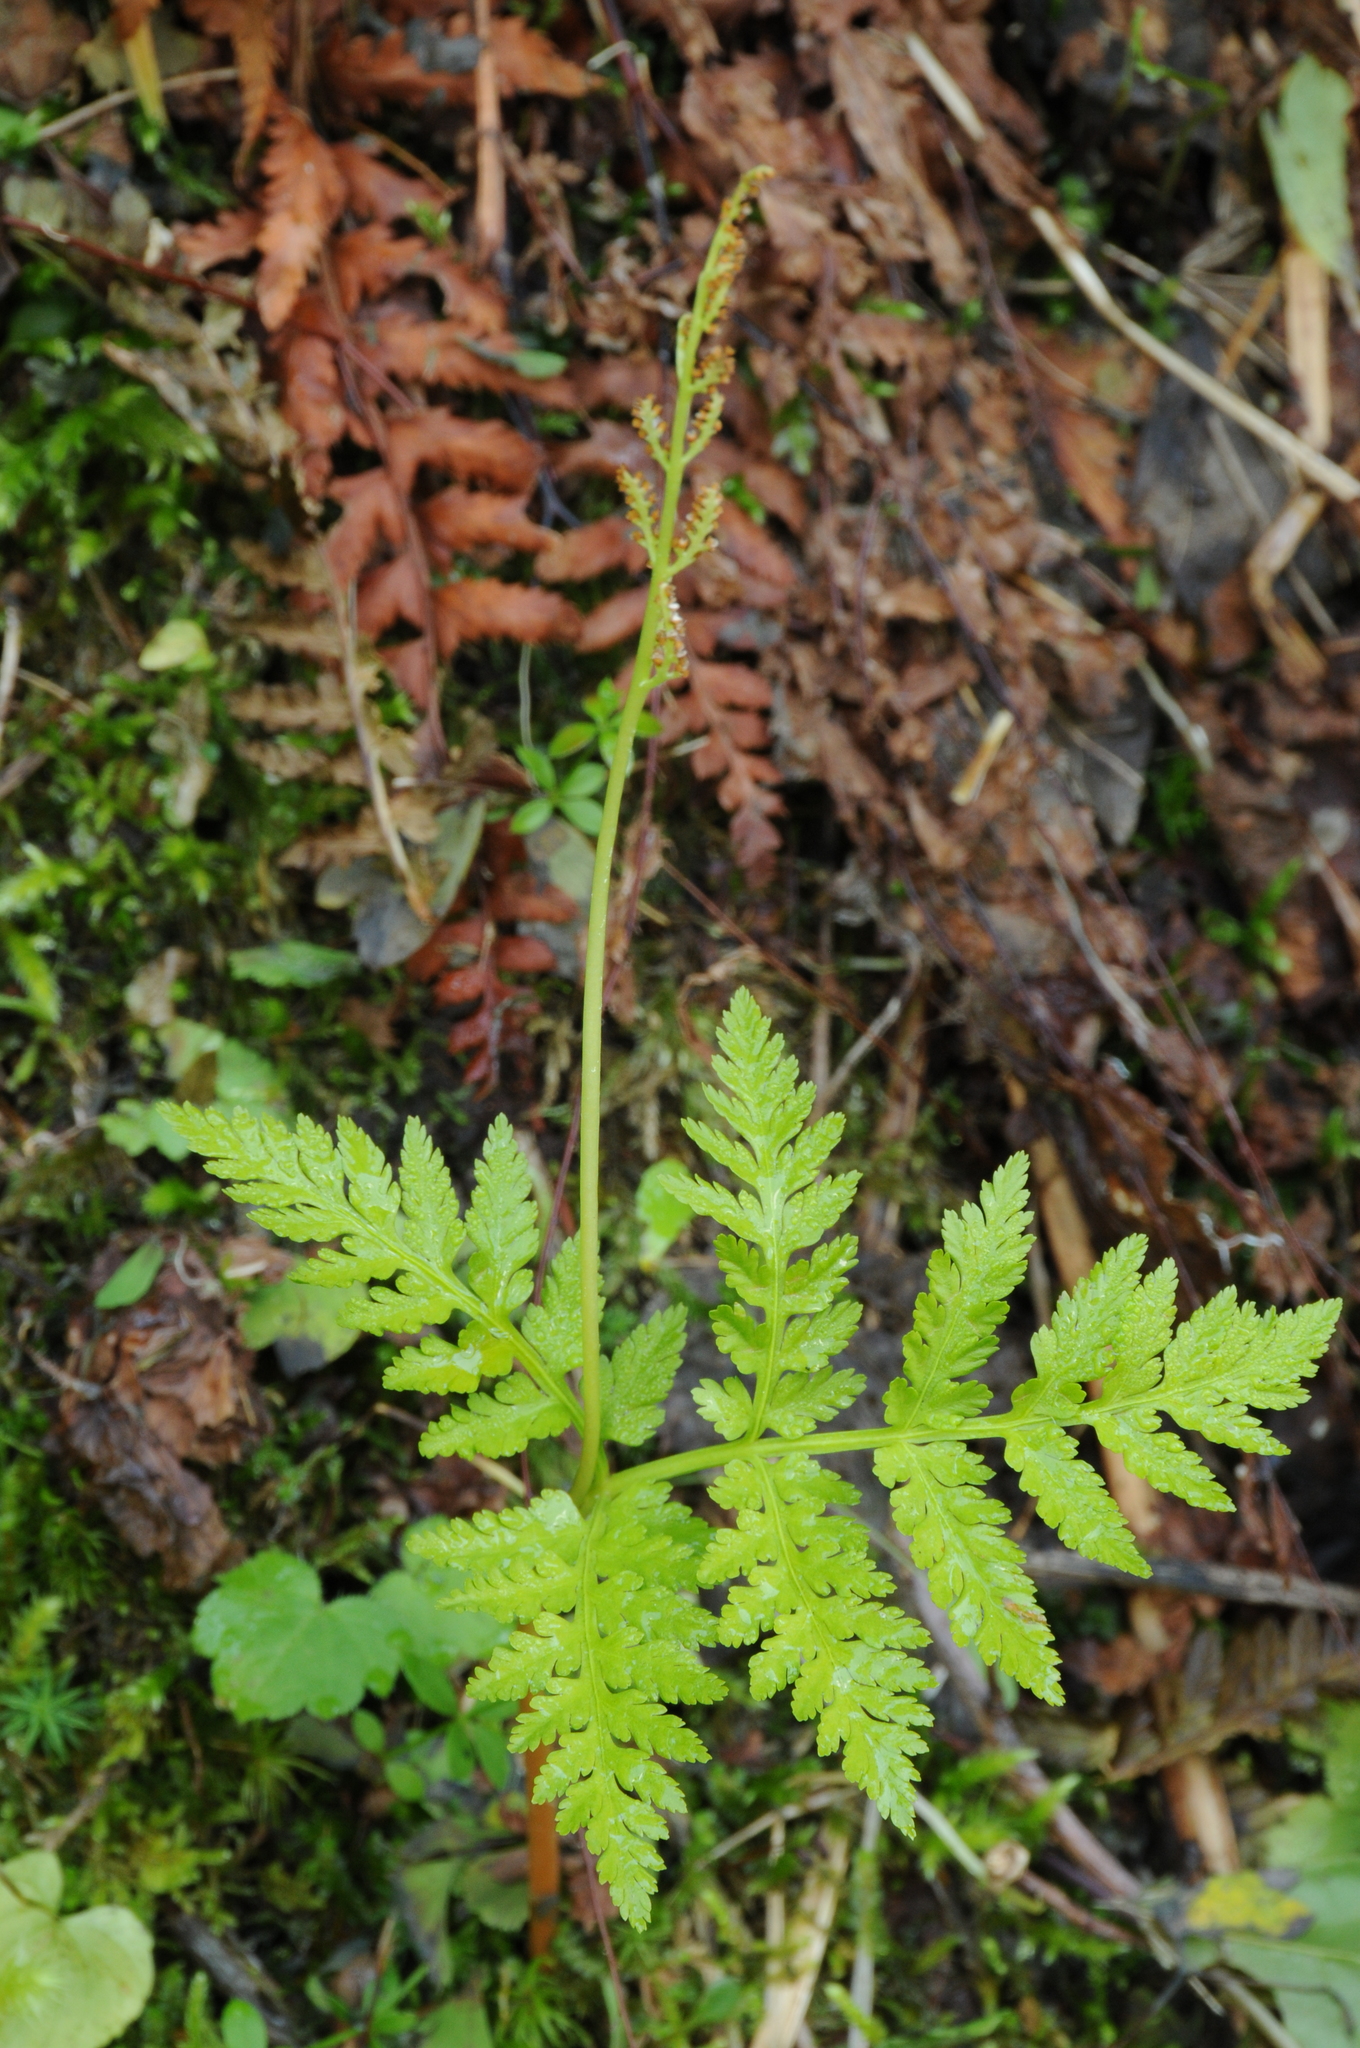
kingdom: Plantae
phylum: Tracheophyta
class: Polypodiopsida
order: Ophioglossales
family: Ophioglossaceae
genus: Botrypus
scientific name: Botrypus virginianus
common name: Common grapefern
